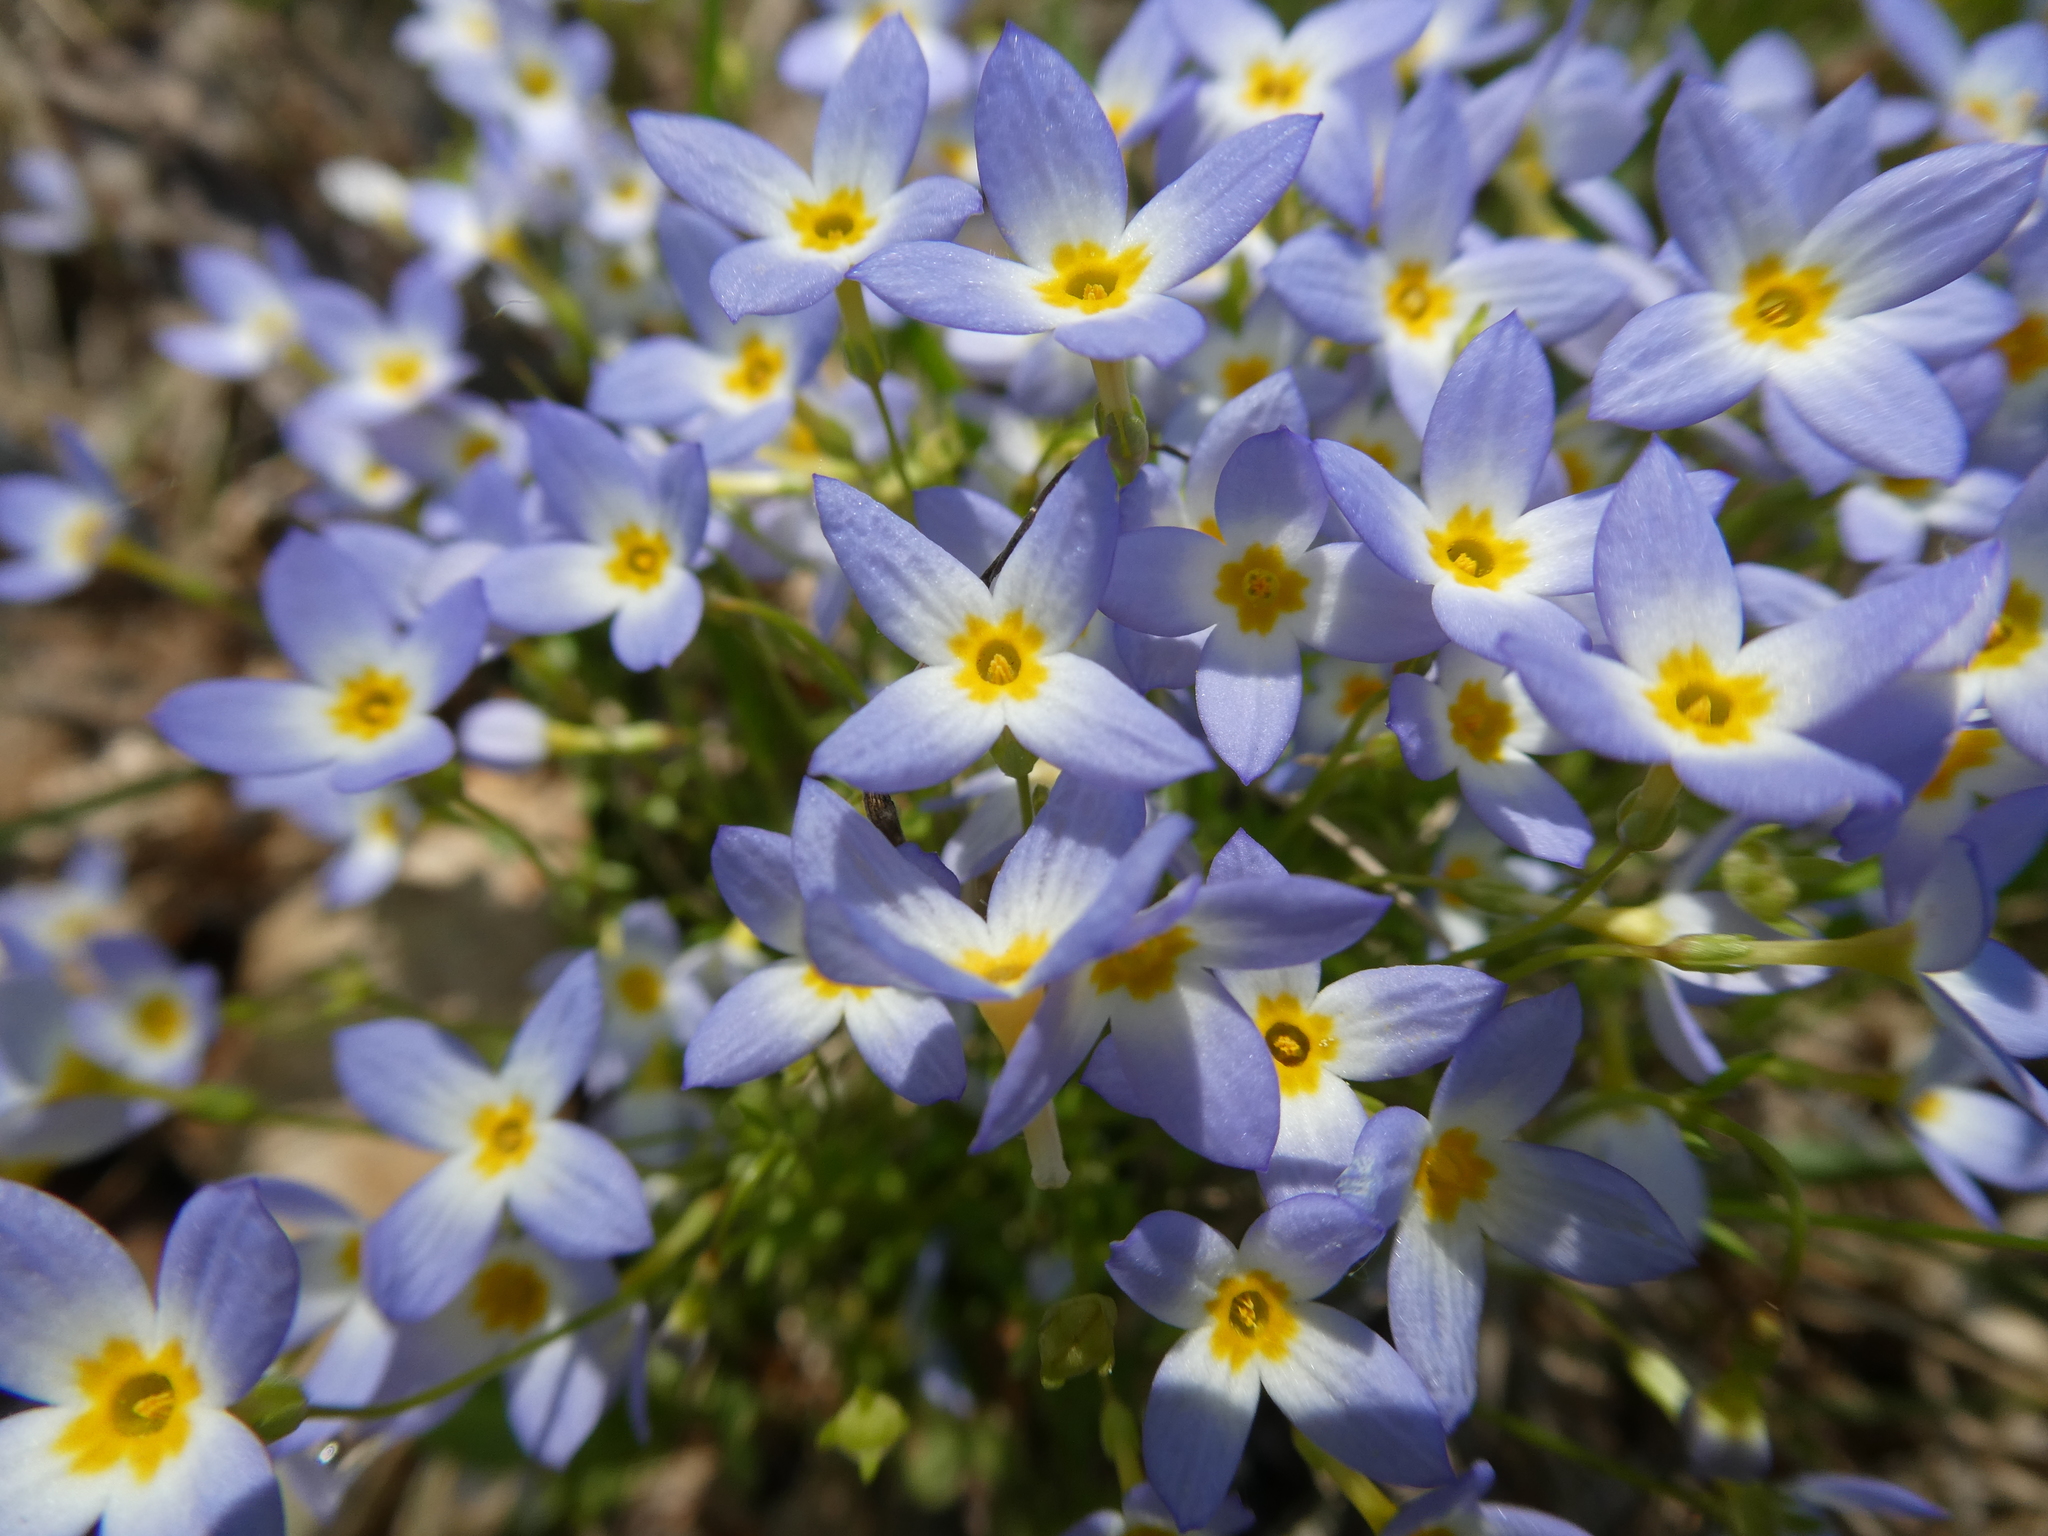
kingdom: Plantae
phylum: Tracheophyta
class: Magnoliopsida
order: Gentianales
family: Rubiaceae
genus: Houstonia
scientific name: Houstonia caerulea
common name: Bluets
